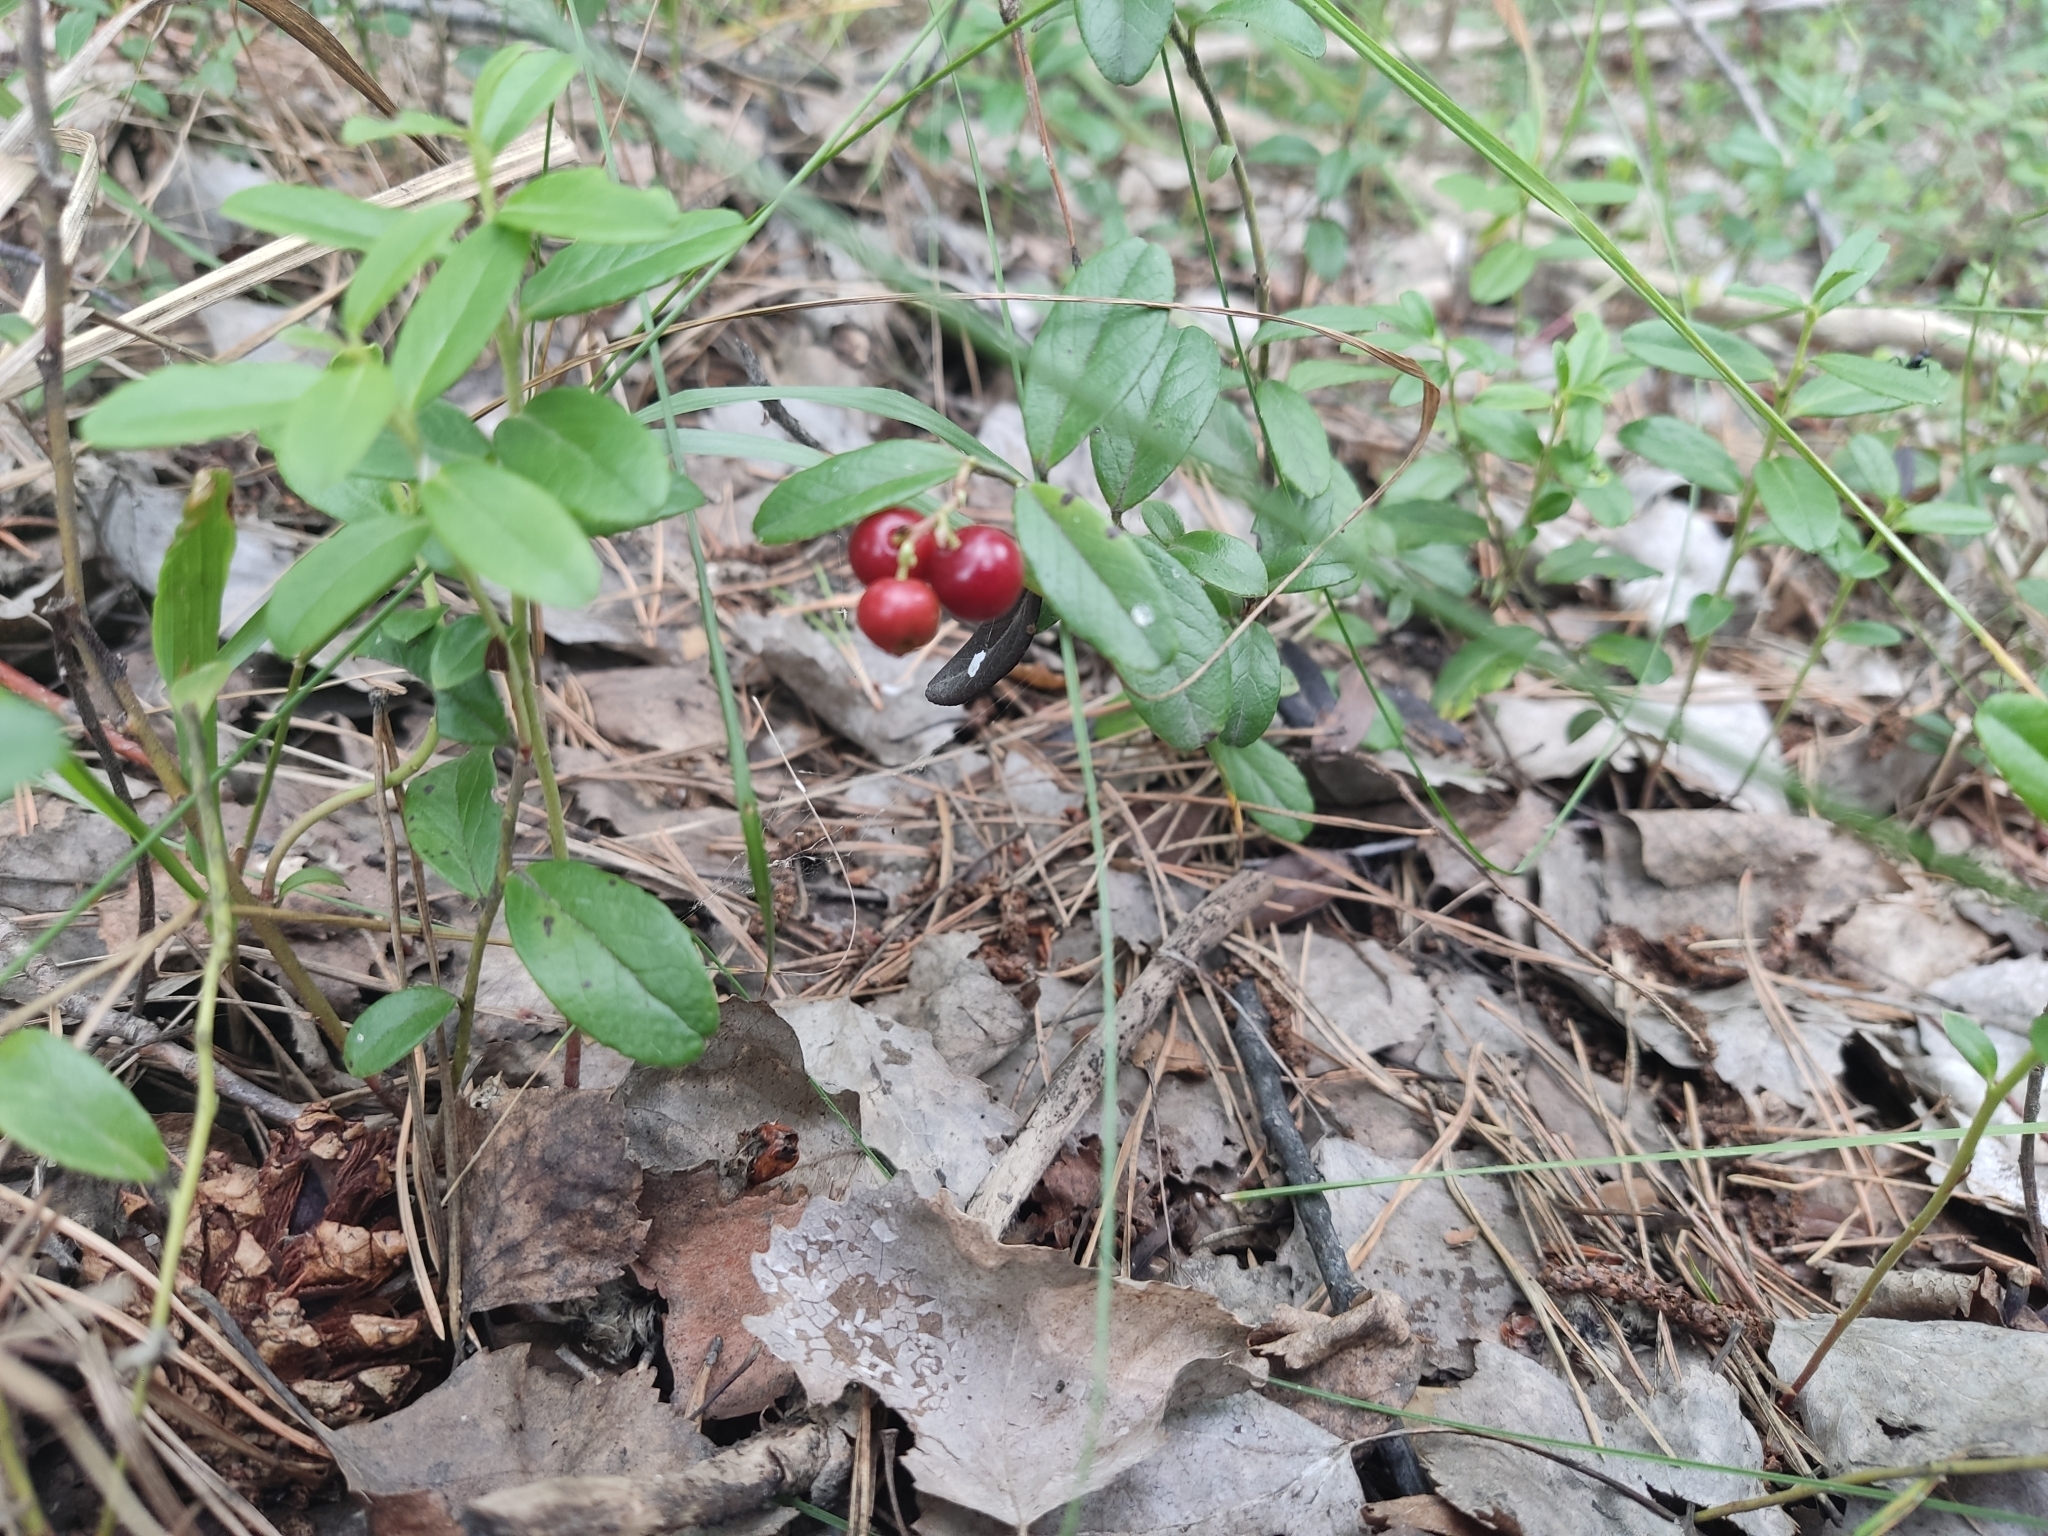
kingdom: Plantae
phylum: Tracheophyta
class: Magnoliopsida
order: Ericales
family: Ericaceae
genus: Vaccinium
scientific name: Vaccinium vitis-idaea
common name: Cowberry
